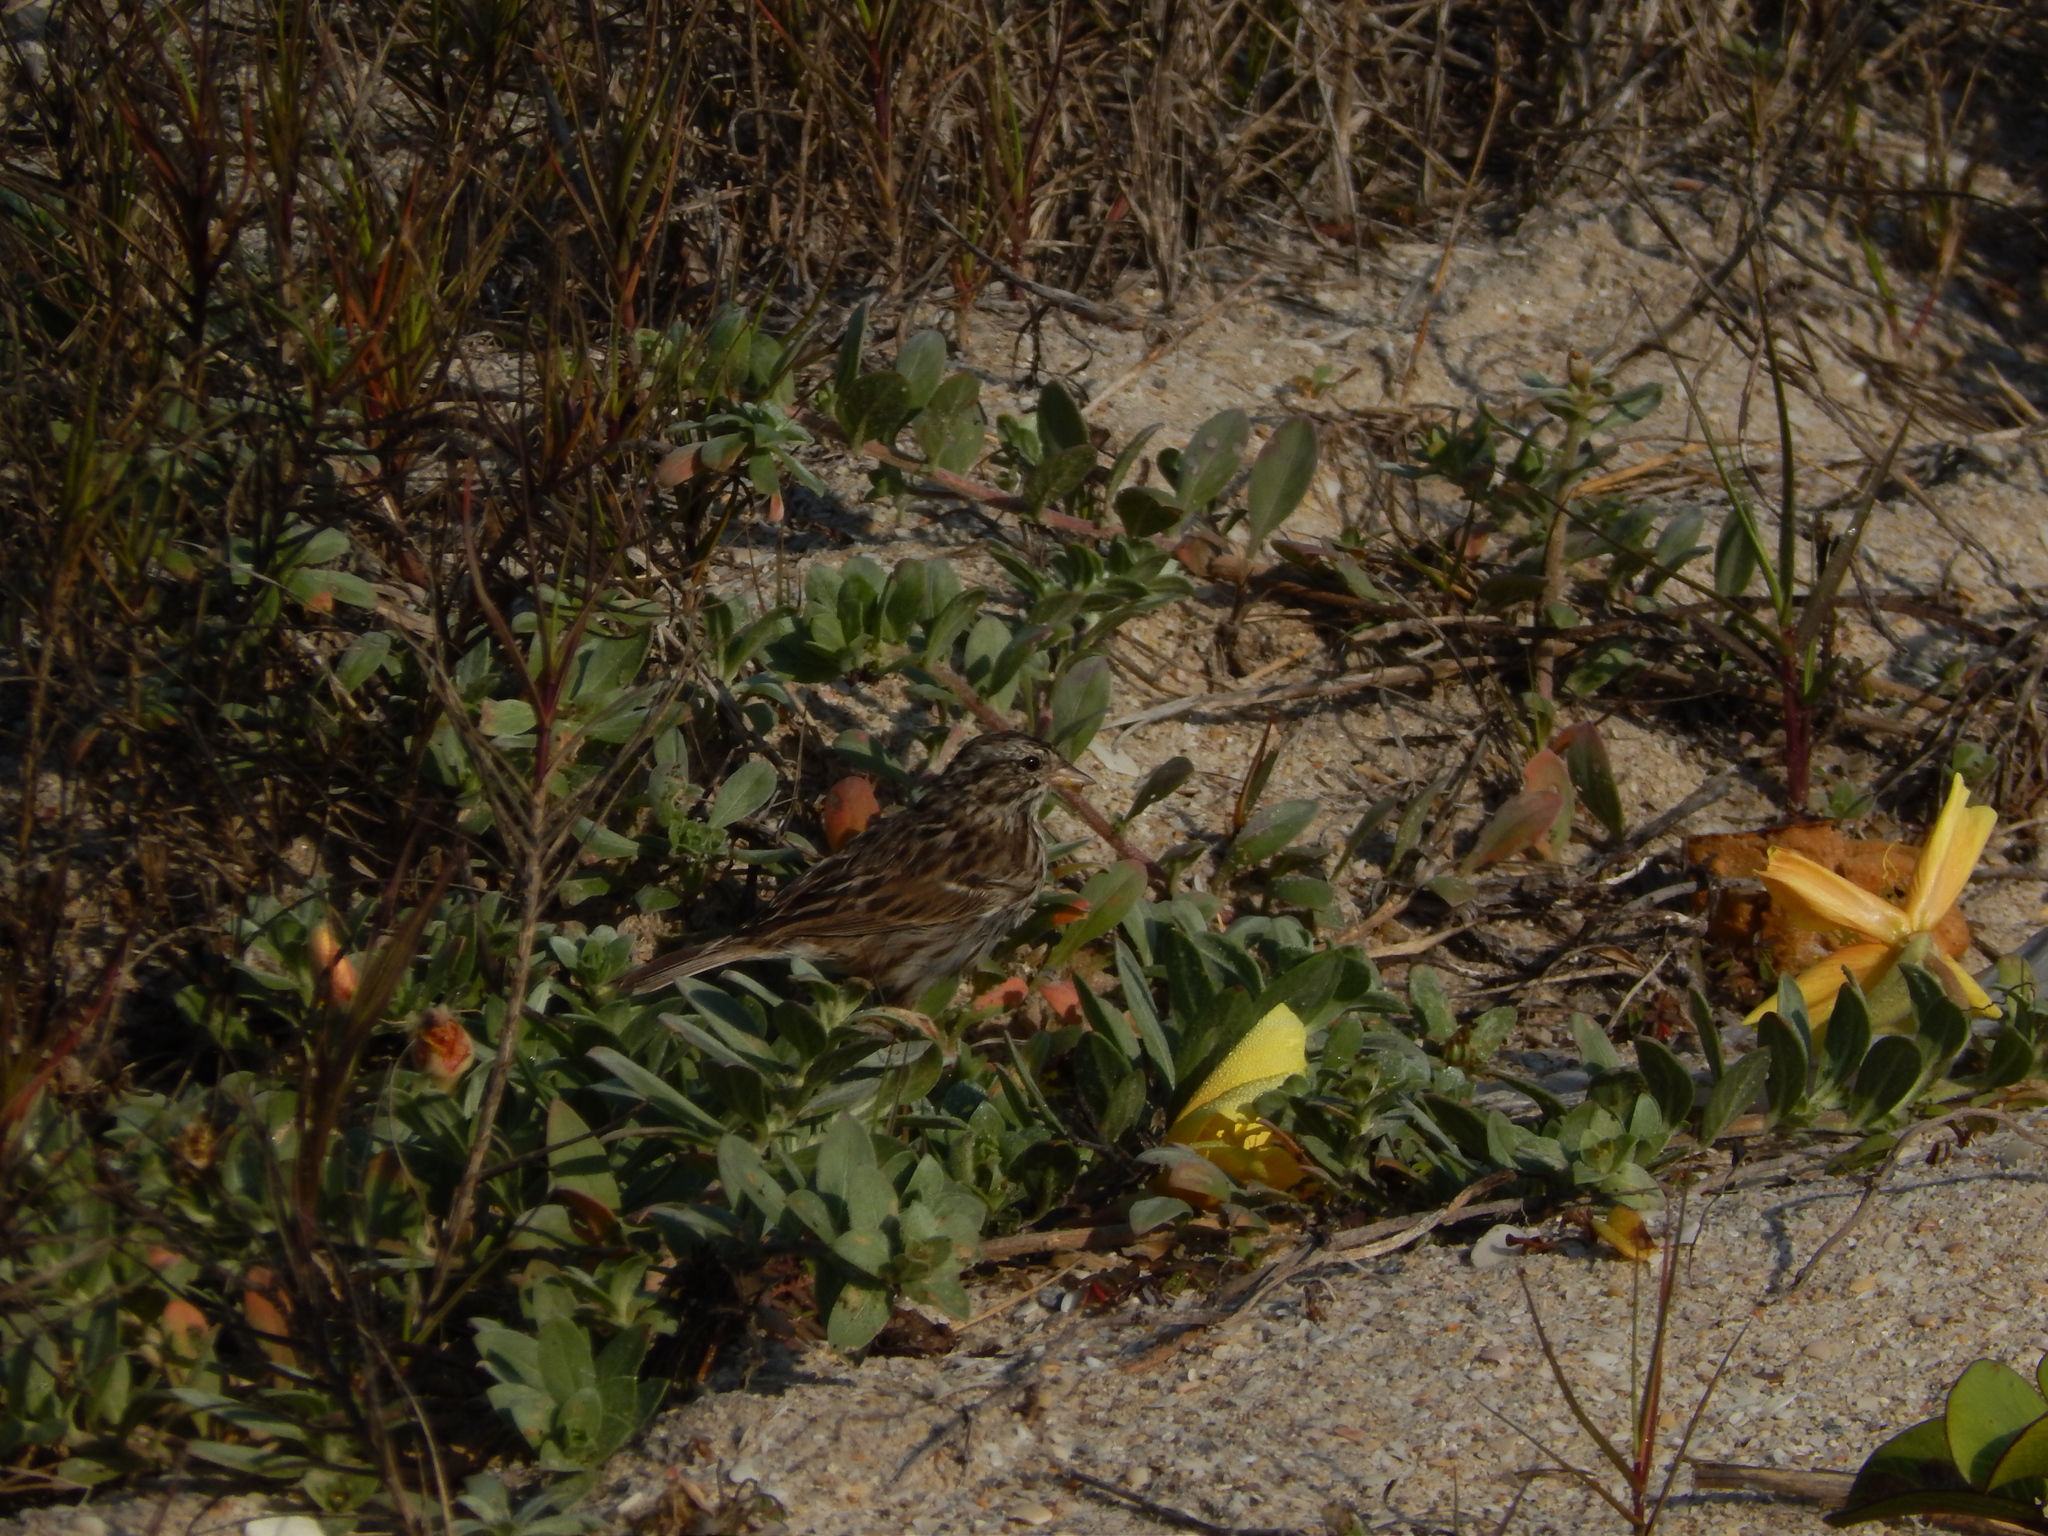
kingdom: Animalia
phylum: Chordata
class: Aves
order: Passeriformes
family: Passerellidae
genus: Passerculus
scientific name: Passerculus sandwichensis
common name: Savannah sparrow
